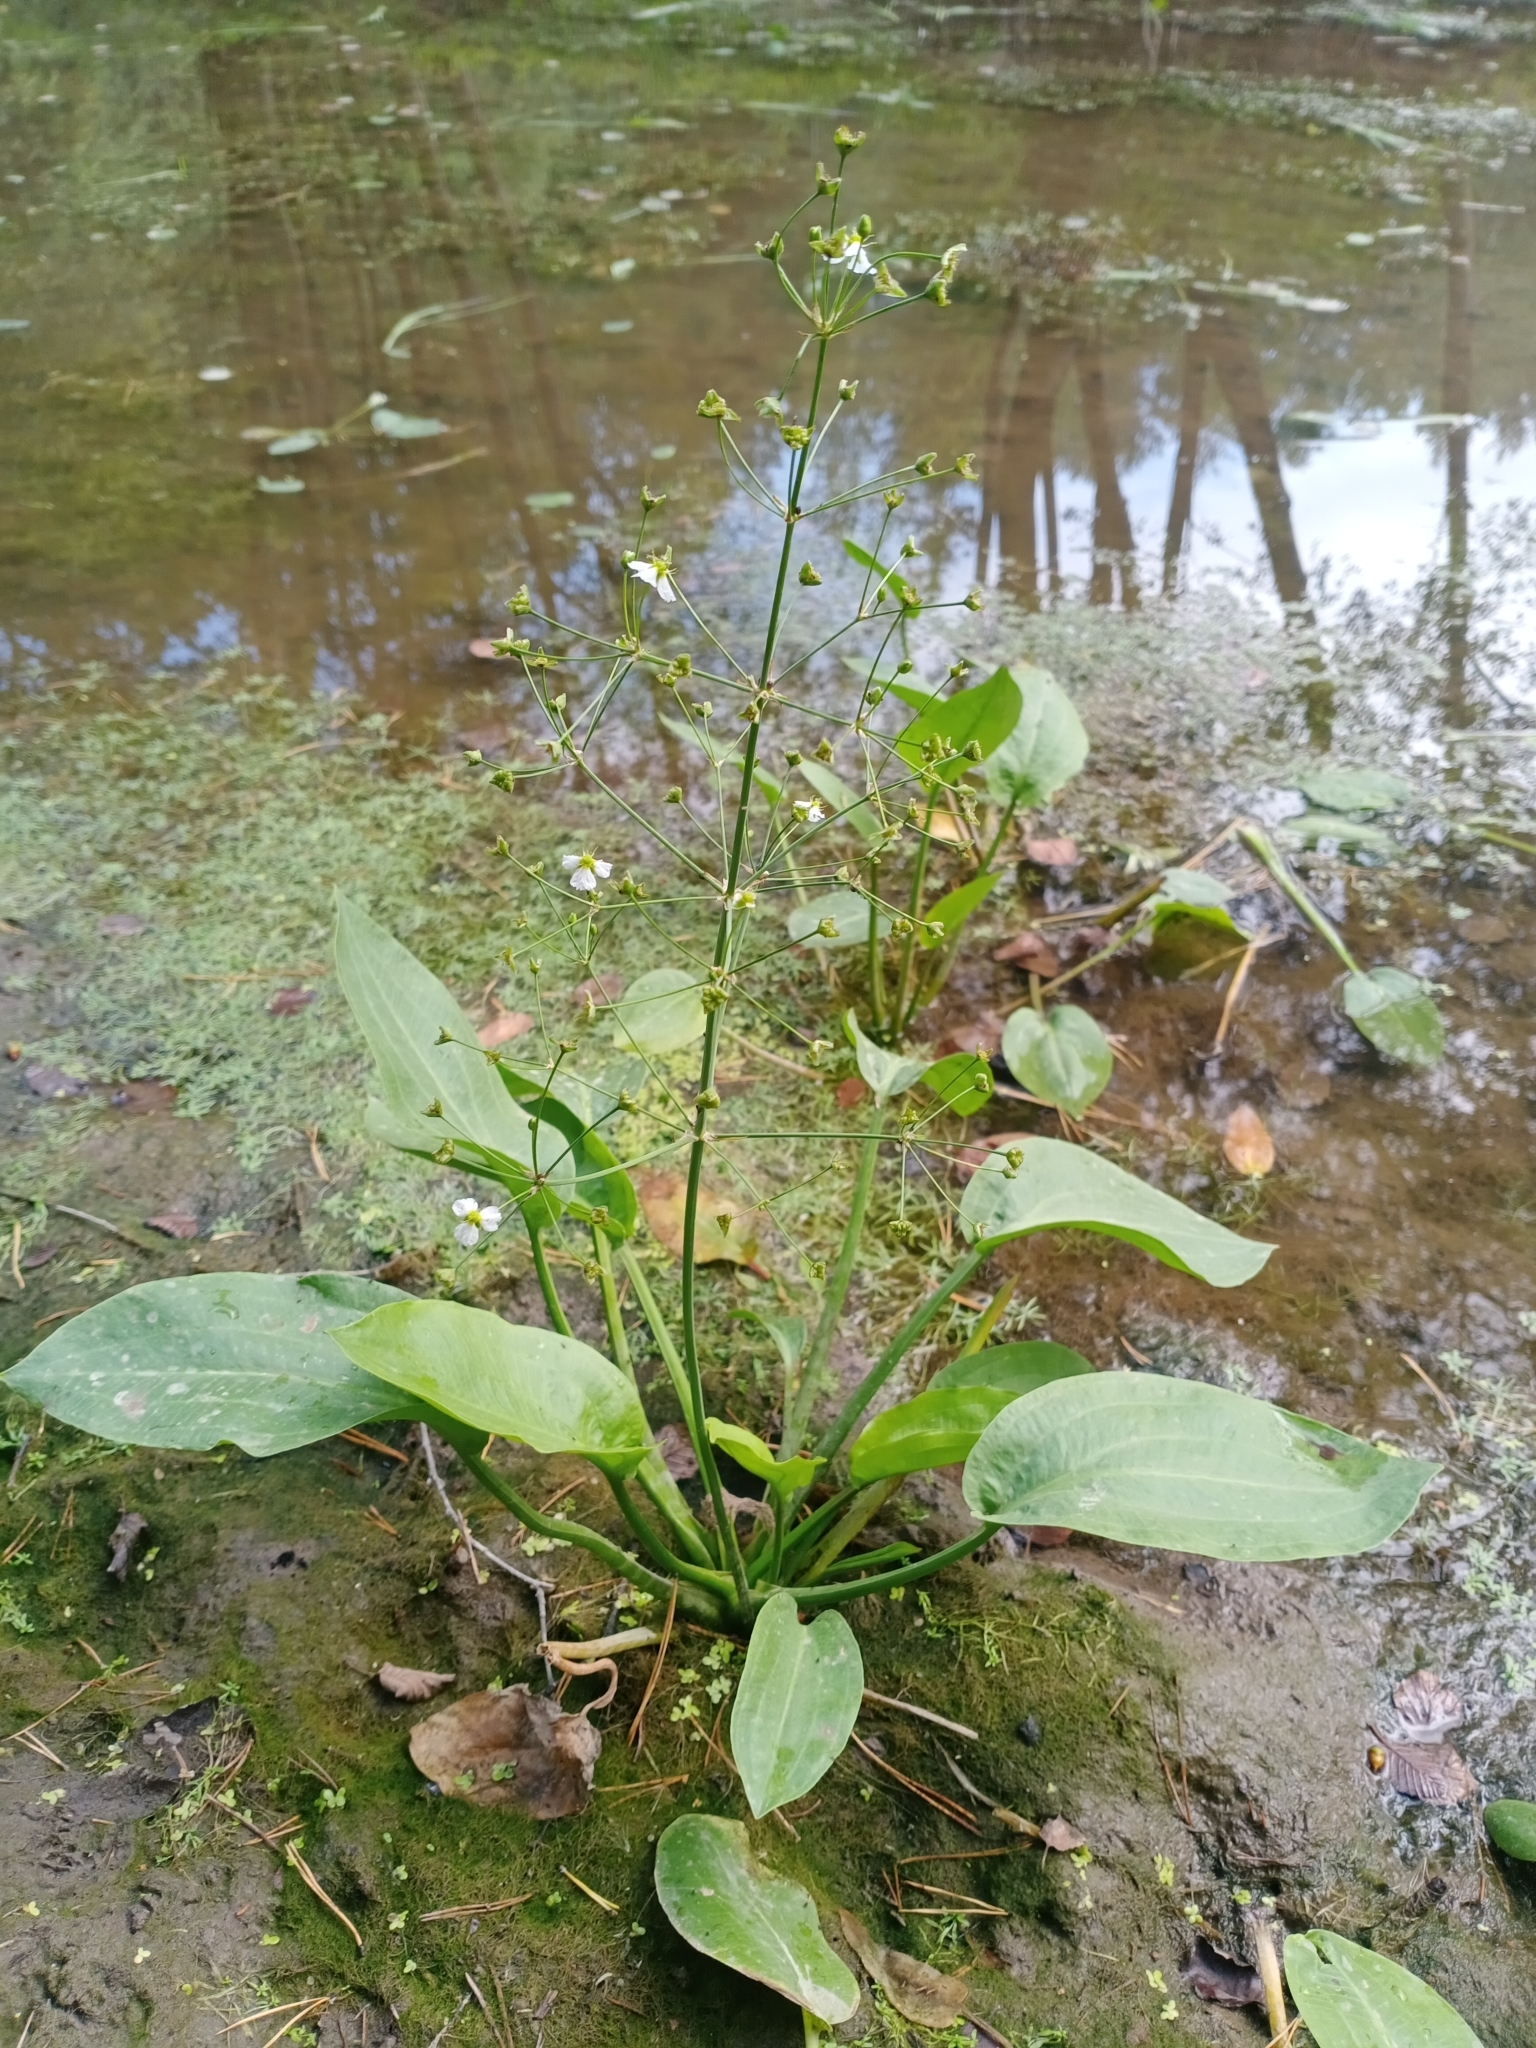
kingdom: Plantae
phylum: Tracheophyta
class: Liliopsida
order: Alismatales
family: Alismataceae
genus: Alisma
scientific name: Alisma plantago-aquatica
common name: Water-plantain
